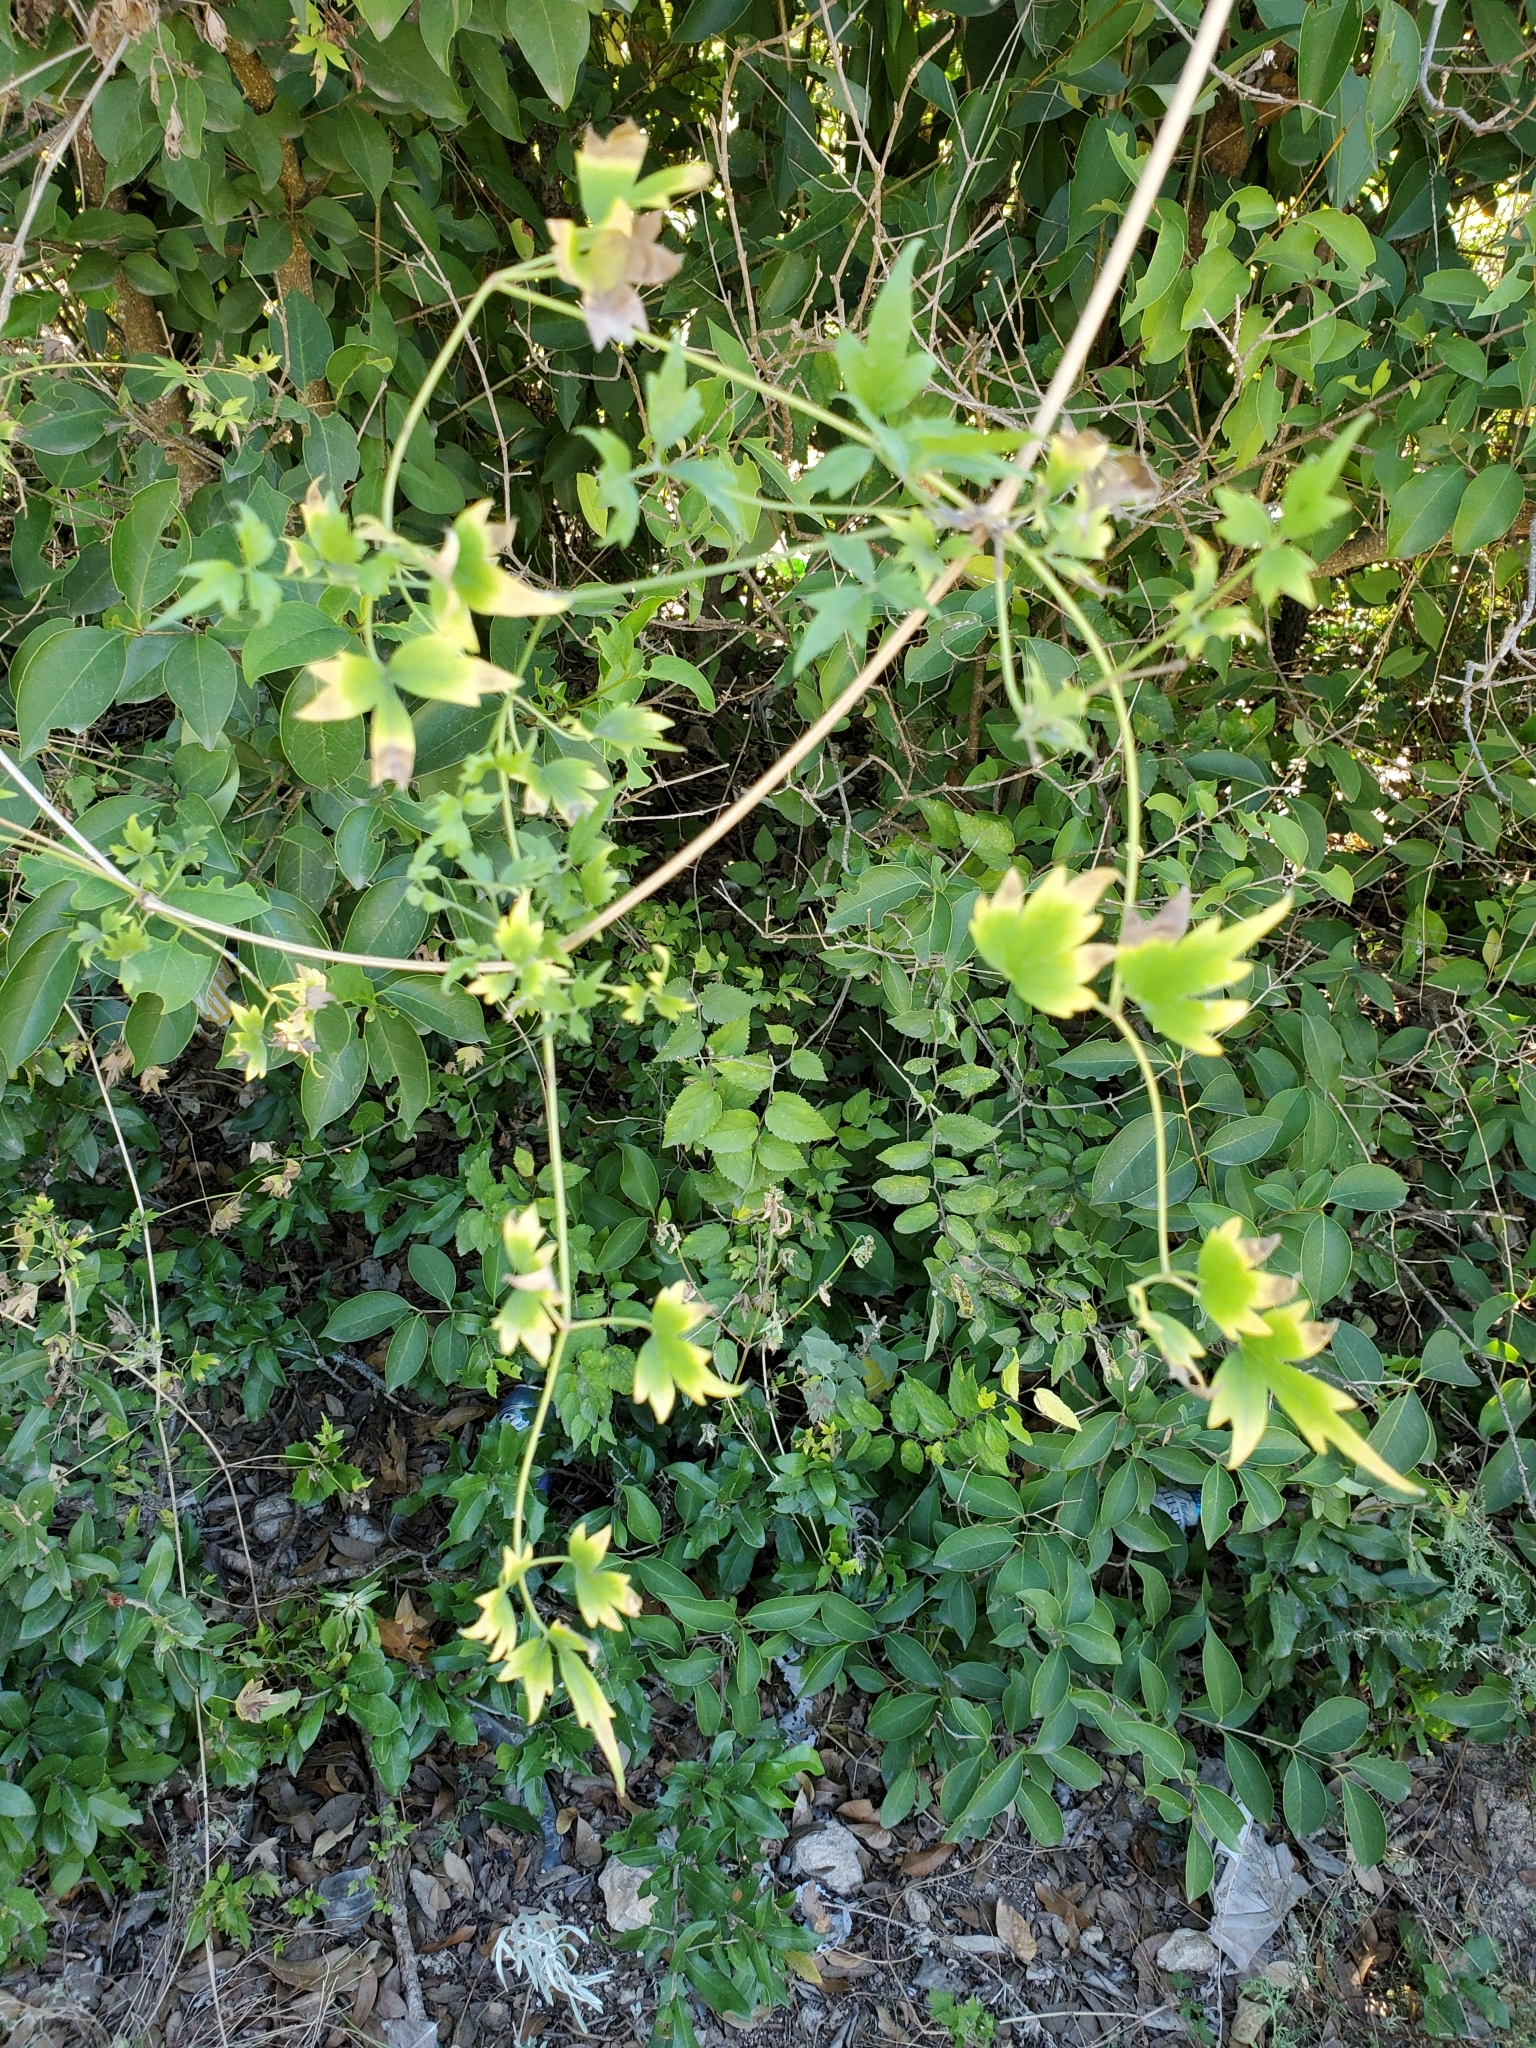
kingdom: Plantae
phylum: Tracheophyta
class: Magnoliopsida
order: Ranunculales
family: Ranunculaceae
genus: Clematis
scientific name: Clematis drummondii
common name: Texas virgin's bower
